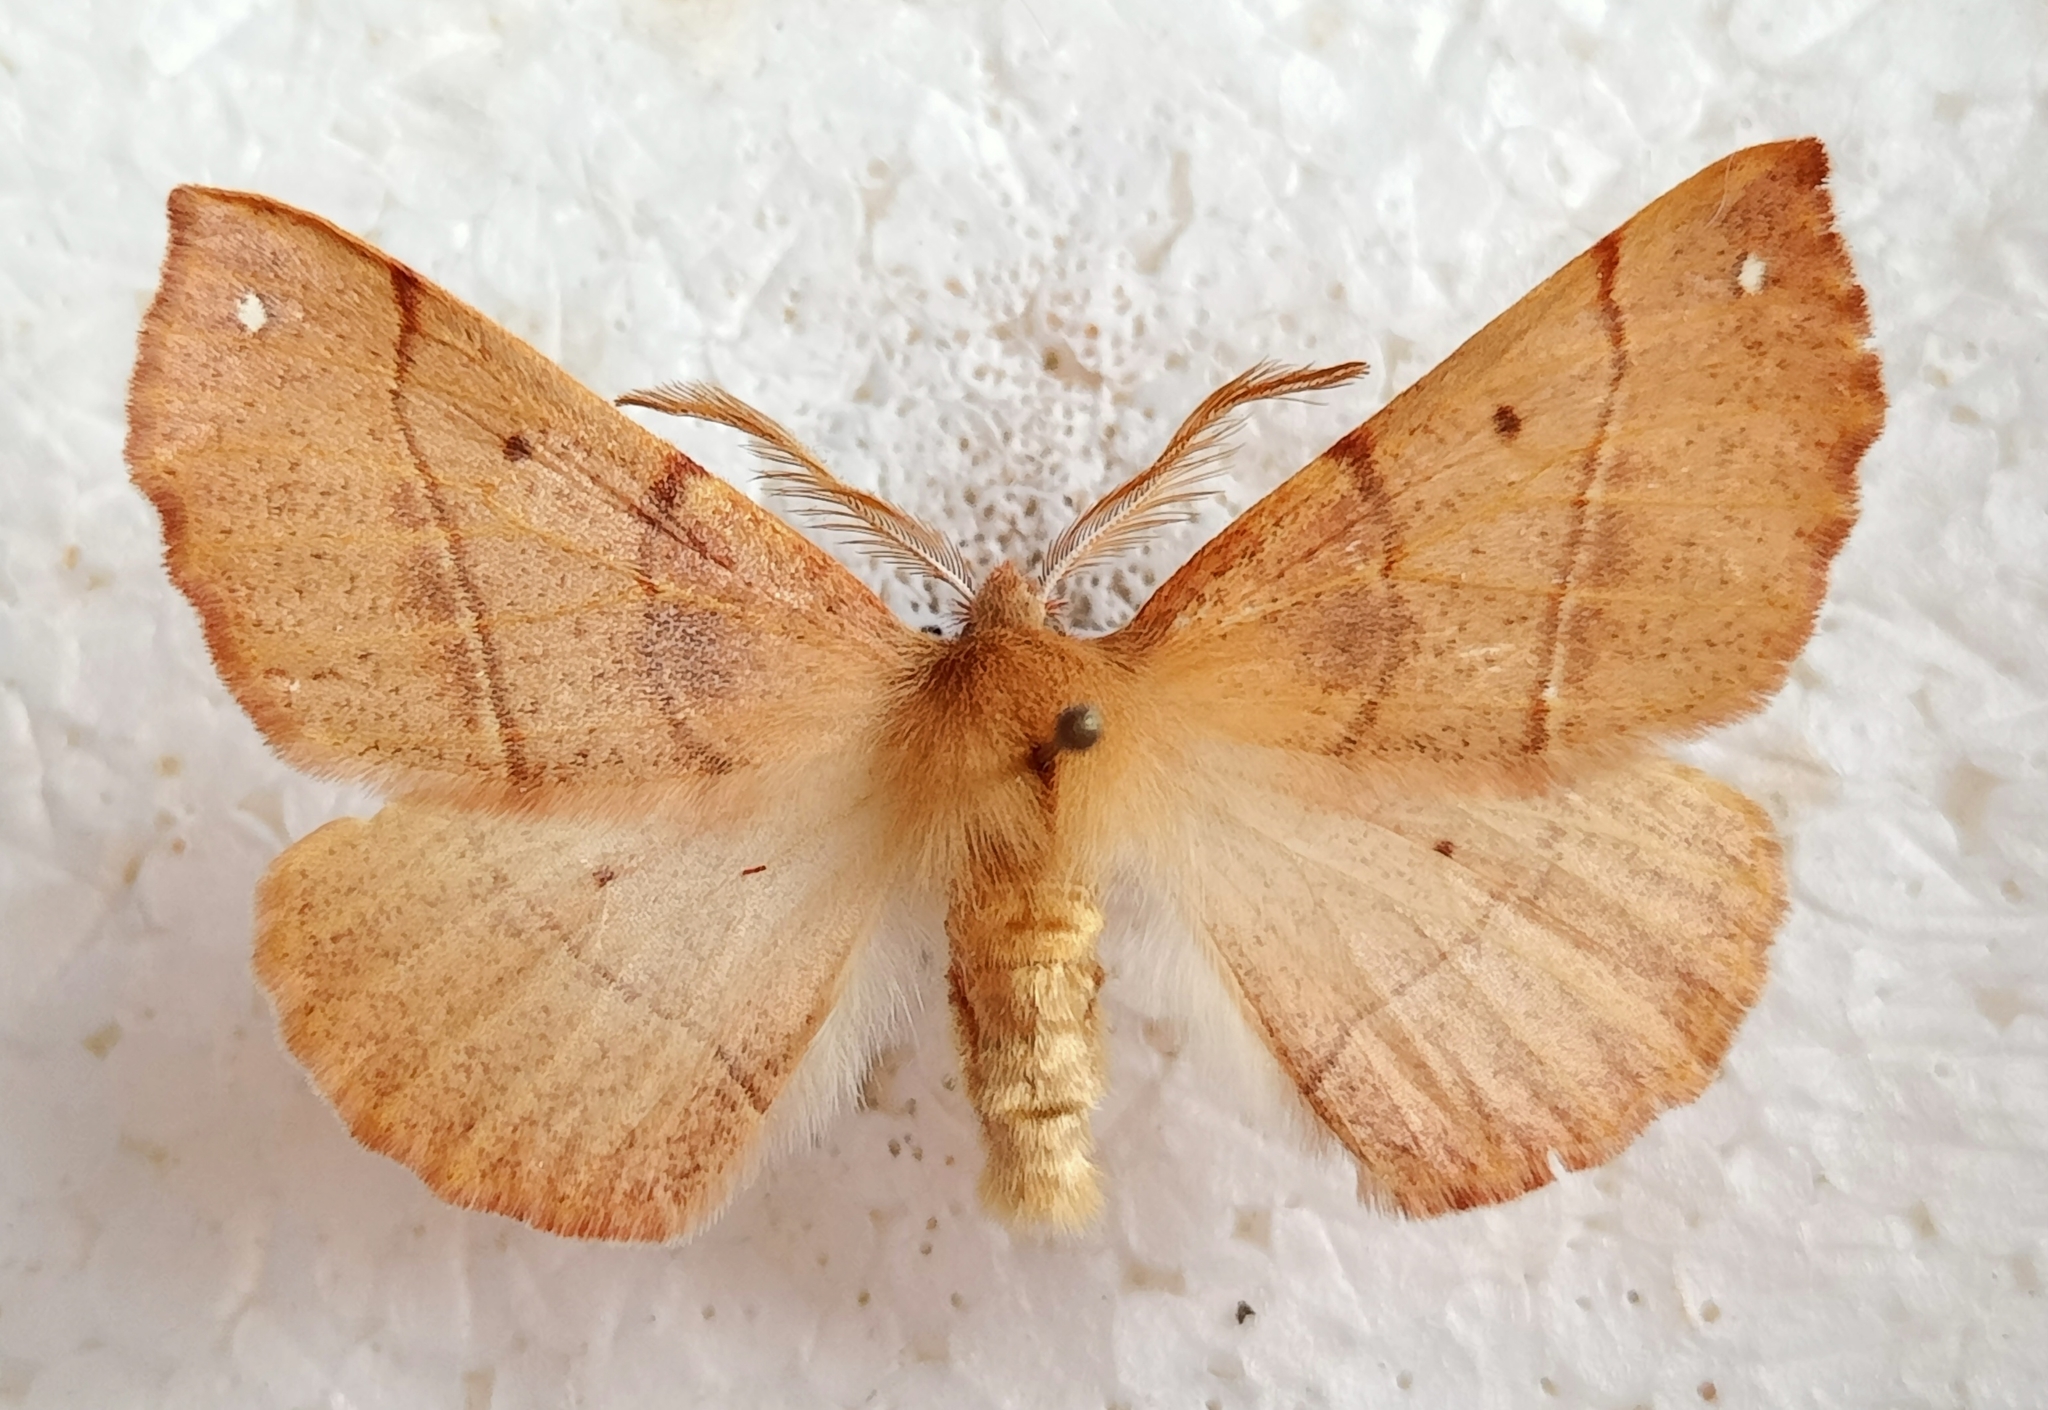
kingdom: Animalia
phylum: Arthropoda
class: Insecta
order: Lepidoptera
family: Geometridae
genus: Colotois
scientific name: Colotois pennaria
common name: Feathered thorn
